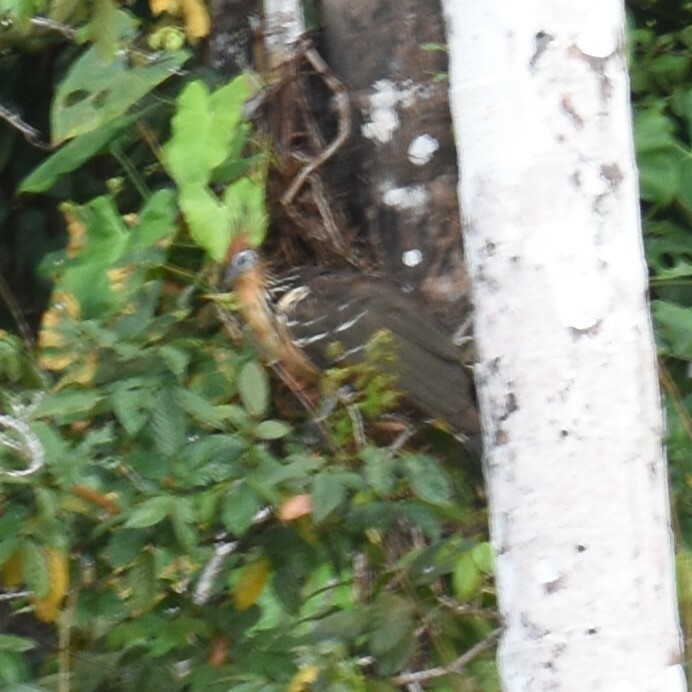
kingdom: Animalia
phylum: Chordata
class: Aves
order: Opisthocomiformes
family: Opisthocomidae
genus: Opisthocomus
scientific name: Opisthocomus hoazin
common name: Hoatzin
